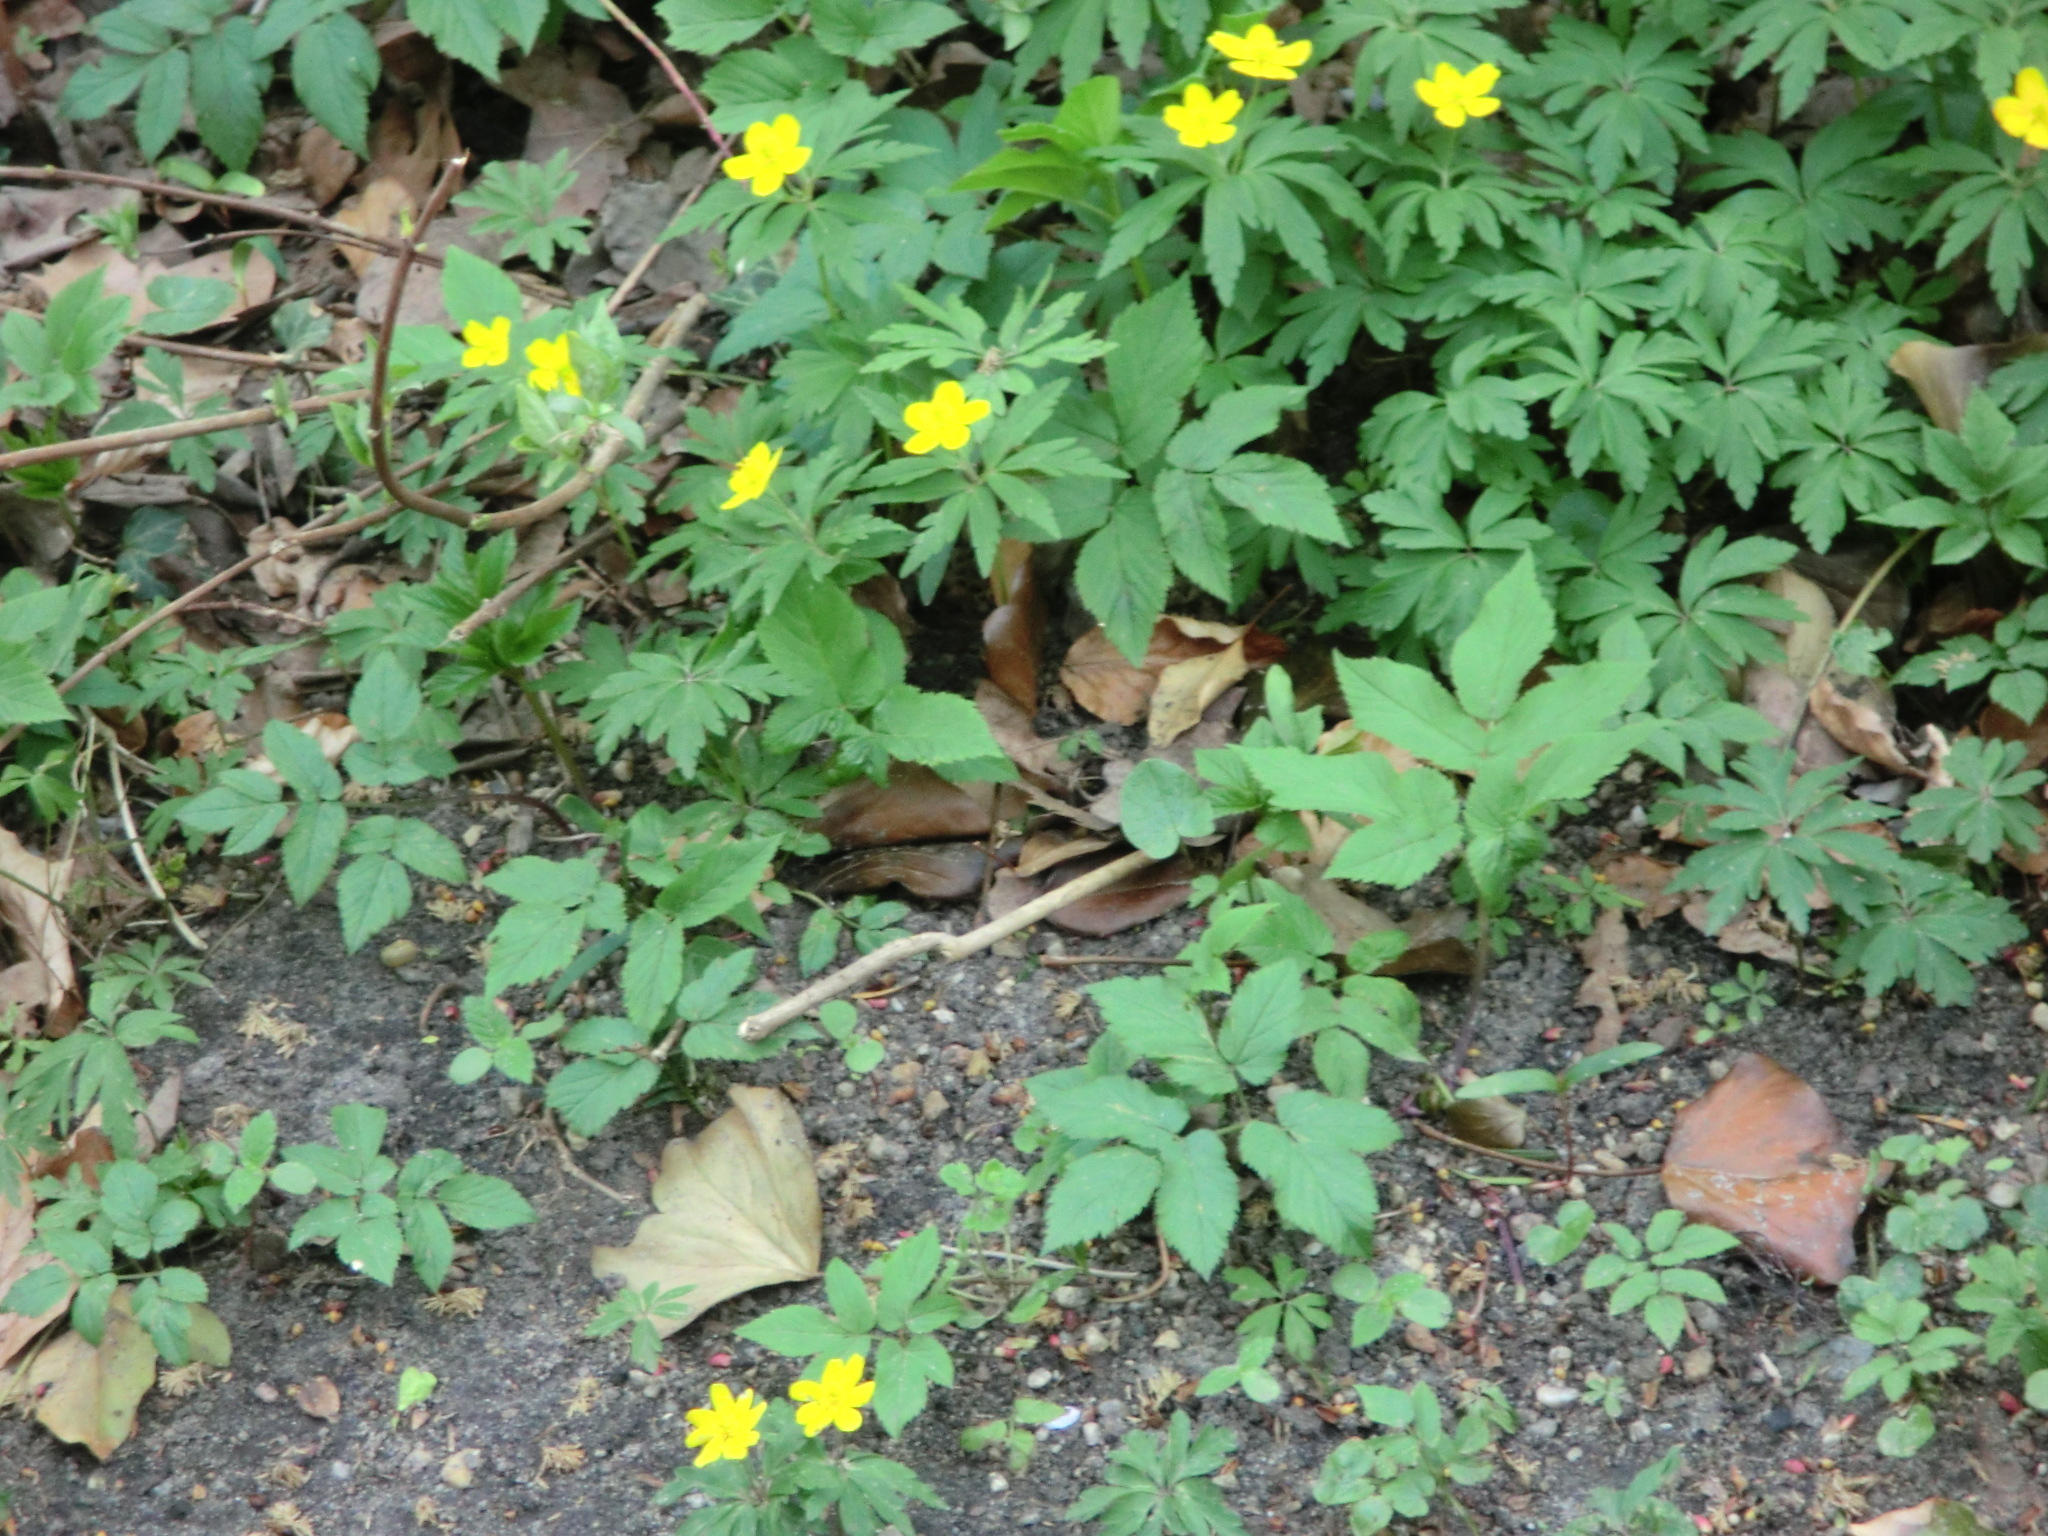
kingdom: Plantae
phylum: Tracheophyta
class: Magnoliopsida
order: Ranunculales
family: Ranunculaceae
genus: Anemone
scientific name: Anemone ranunculoides
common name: Yellow anemone
